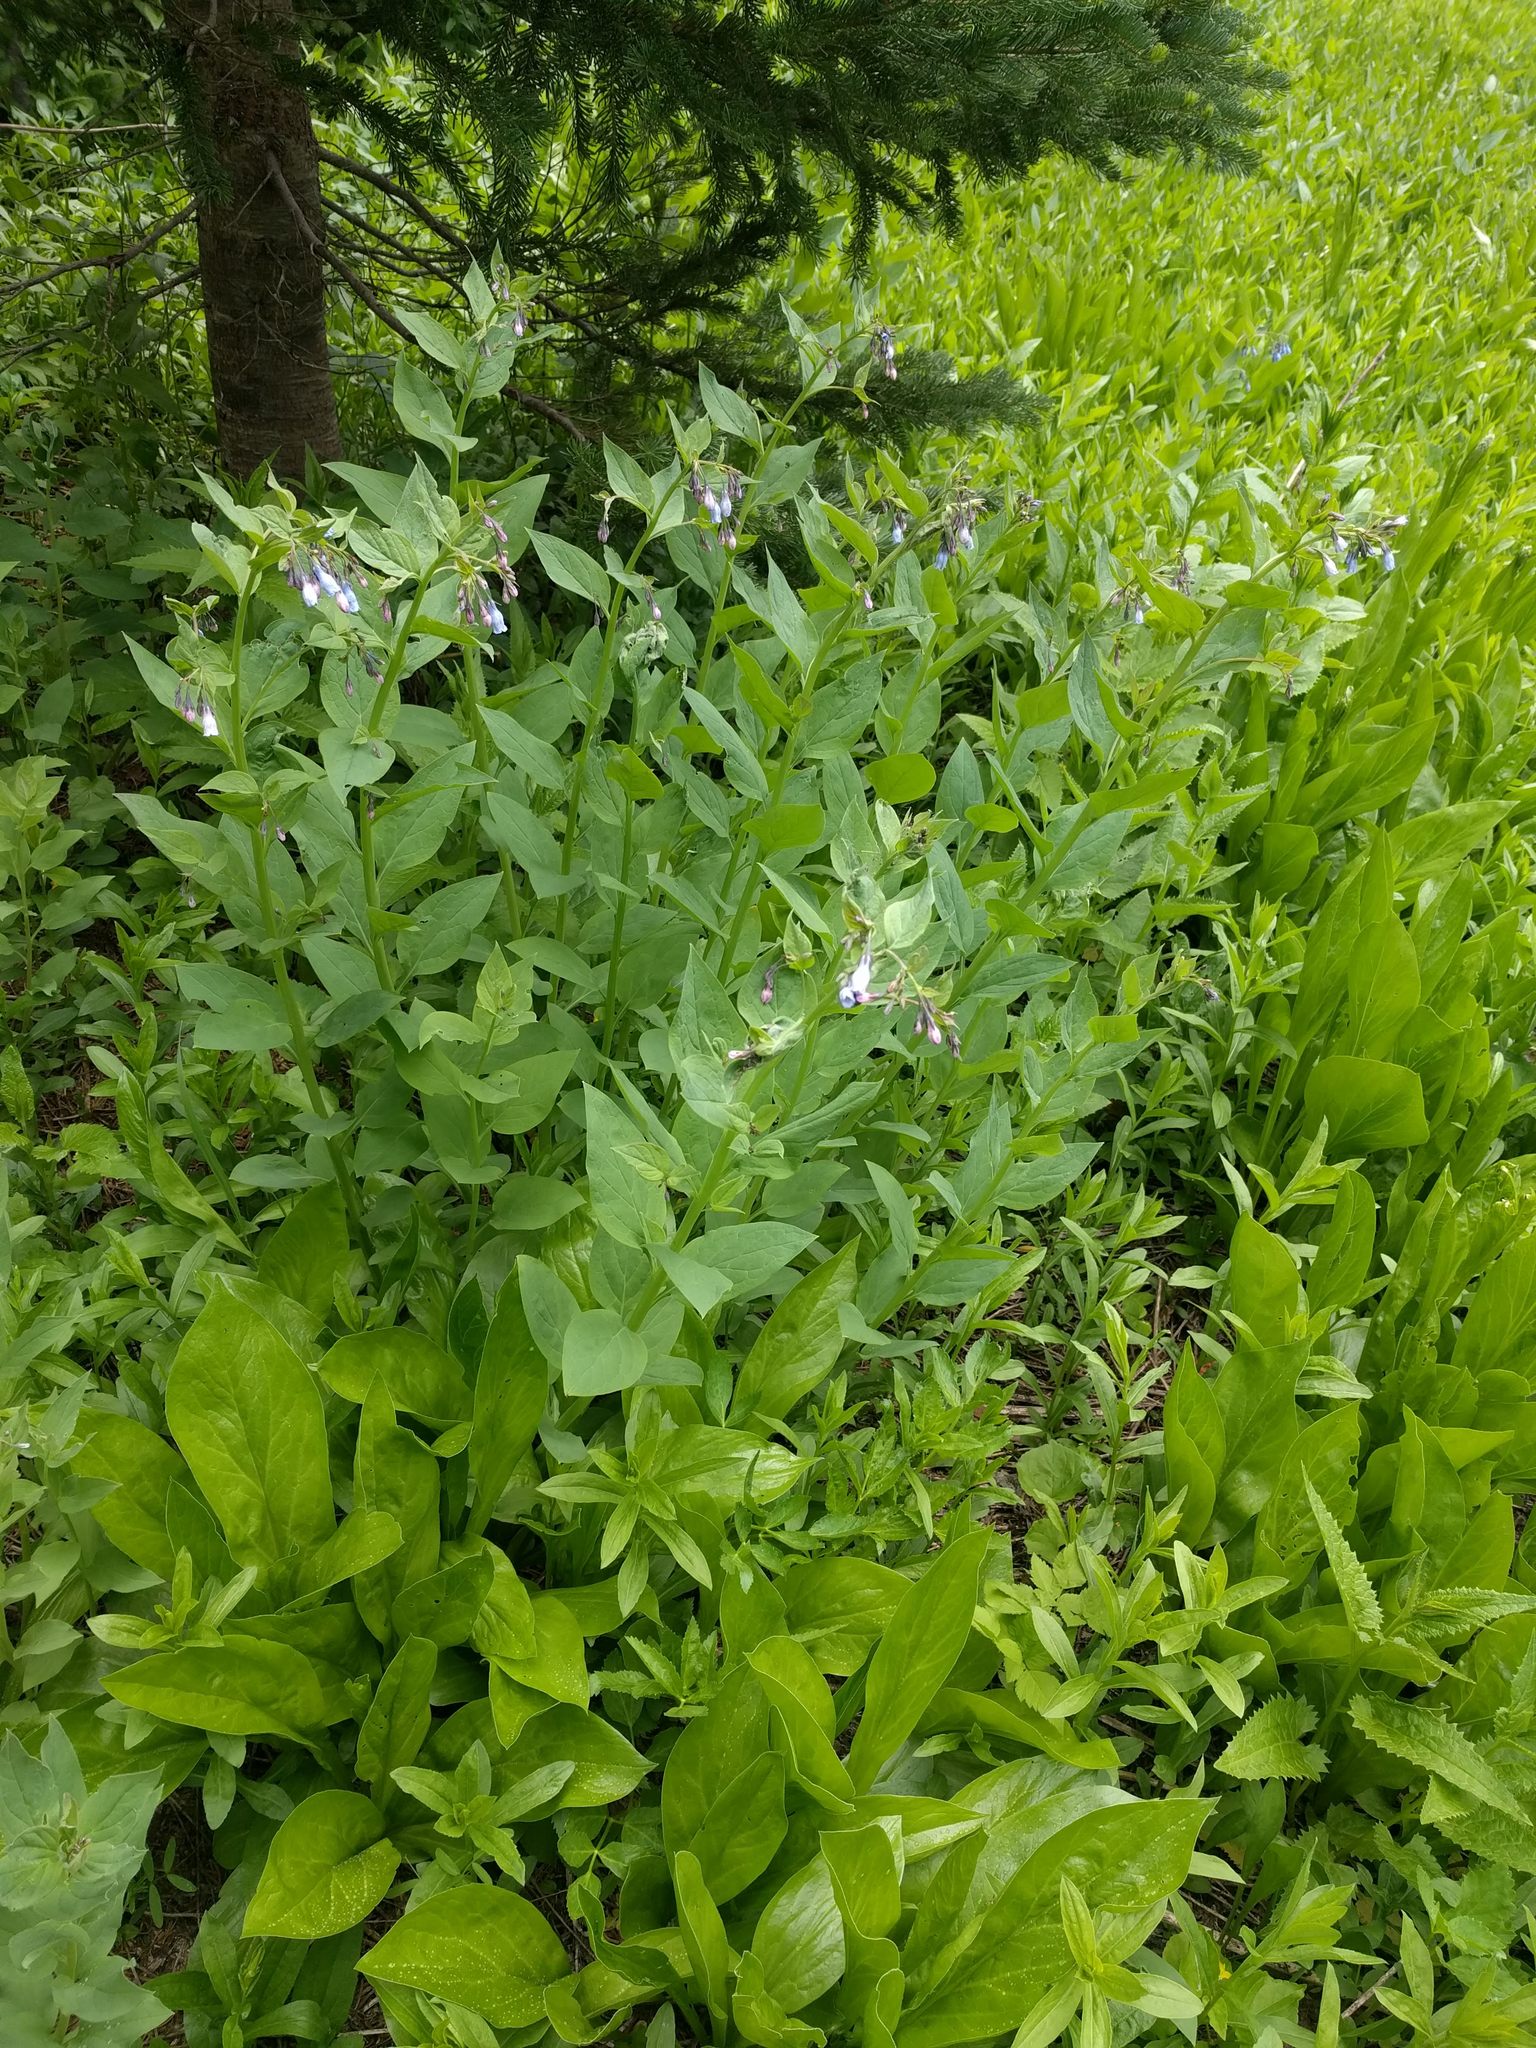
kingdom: Plantae
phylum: Tracheophyta
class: Magnoliopsida
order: Boraginales
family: Boraginaceae
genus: Mertensia
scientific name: Mertensia paniculata
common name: Panicled bluebells
